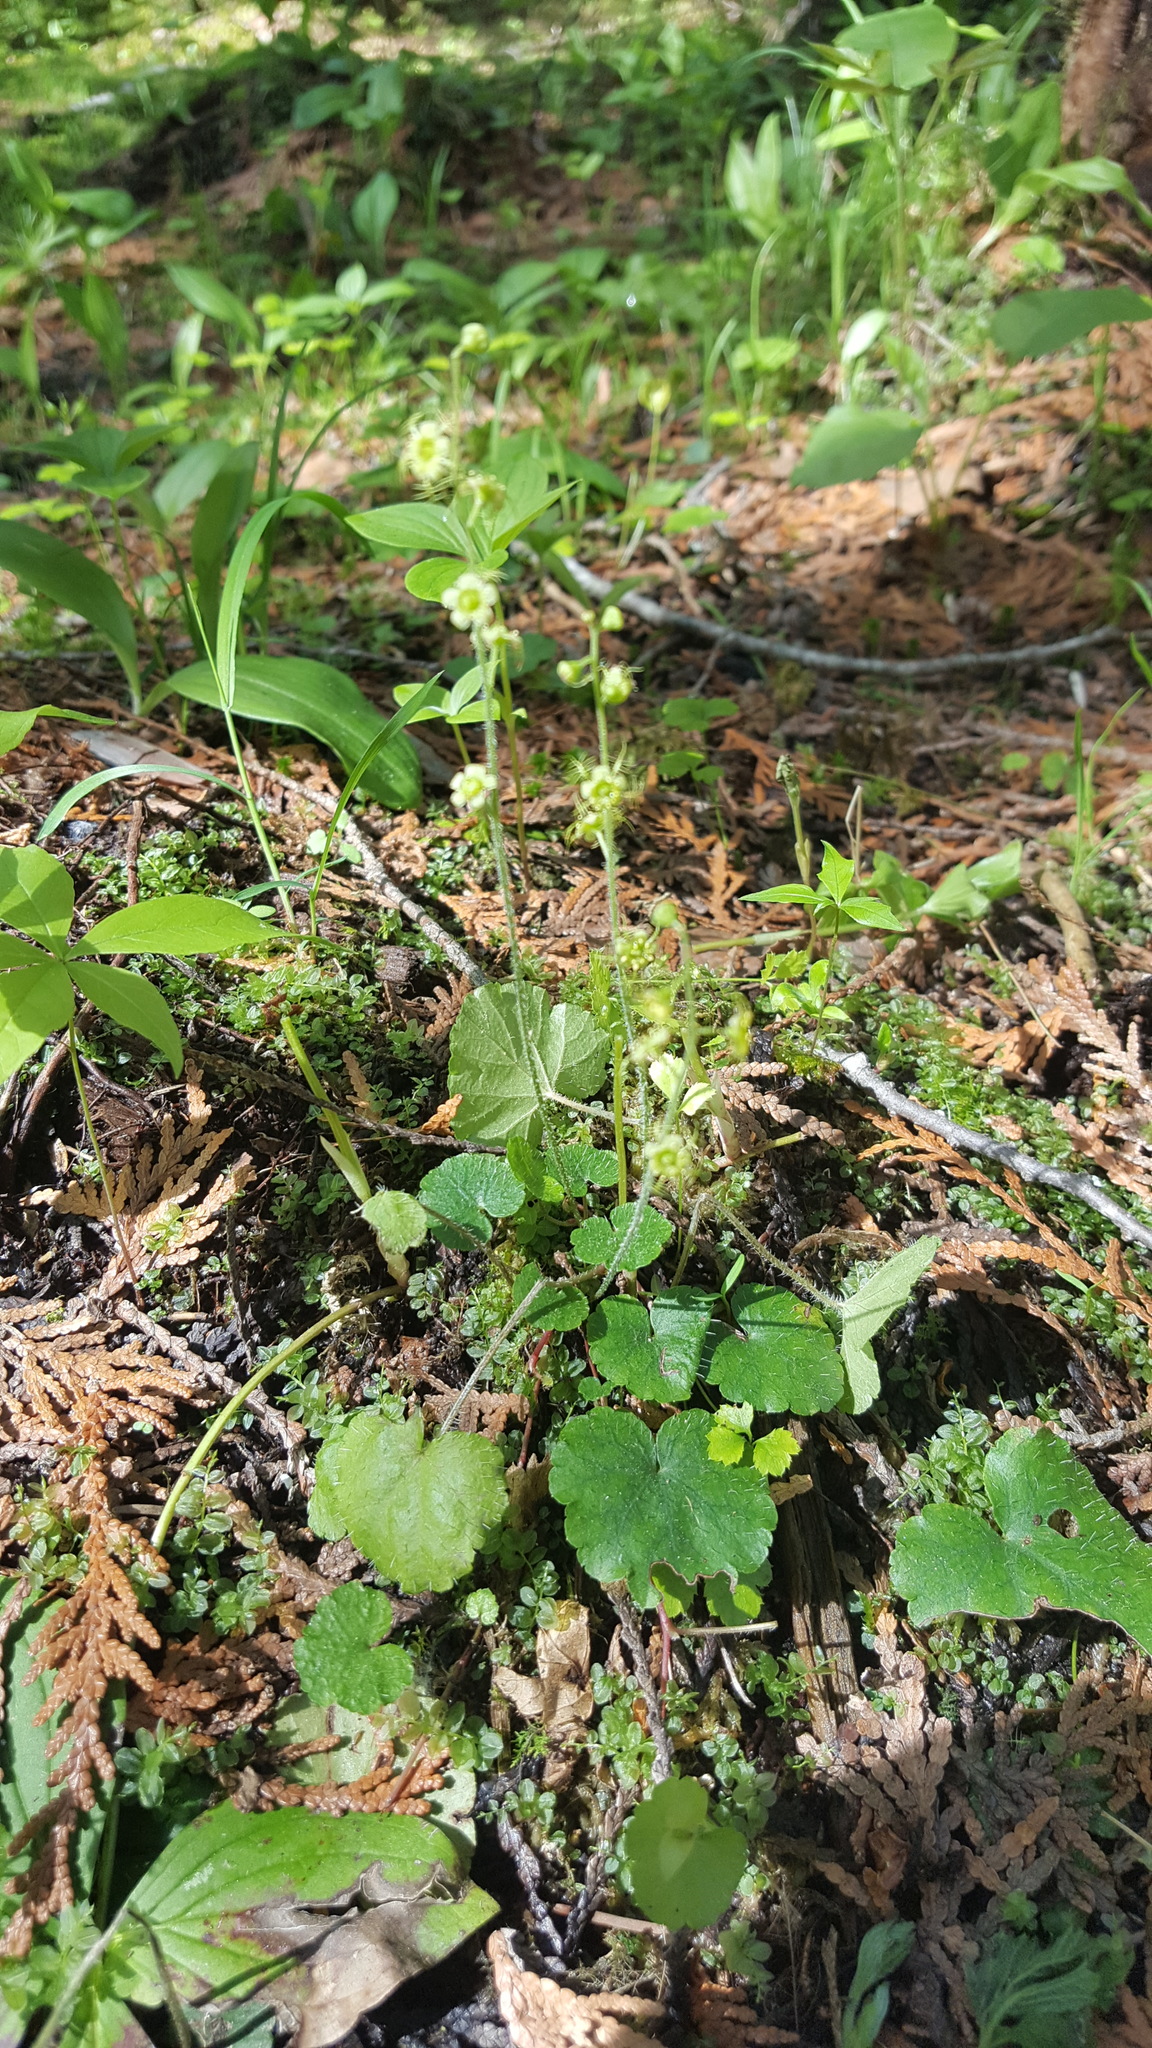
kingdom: Plantae
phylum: Tracheophyta
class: Magnoliopsida
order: Saxifragales
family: Saxifragaceae
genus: Mitella
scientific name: Mitella nuda
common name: Bare-stemmed bishop's-cap
